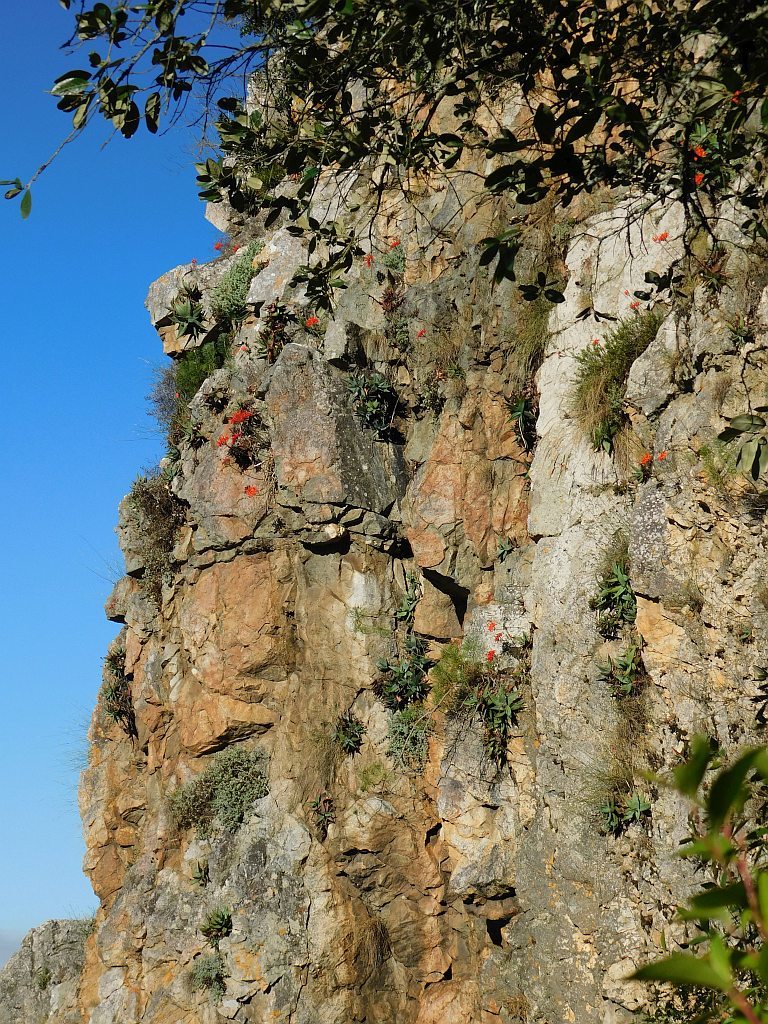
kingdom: Plantae
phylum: Tracheophyta
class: Liliopsida
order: Asparagales
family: Amaryllidaceae
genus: Nerine
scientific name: Nerine sarniensis
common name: Guernsey-lily
